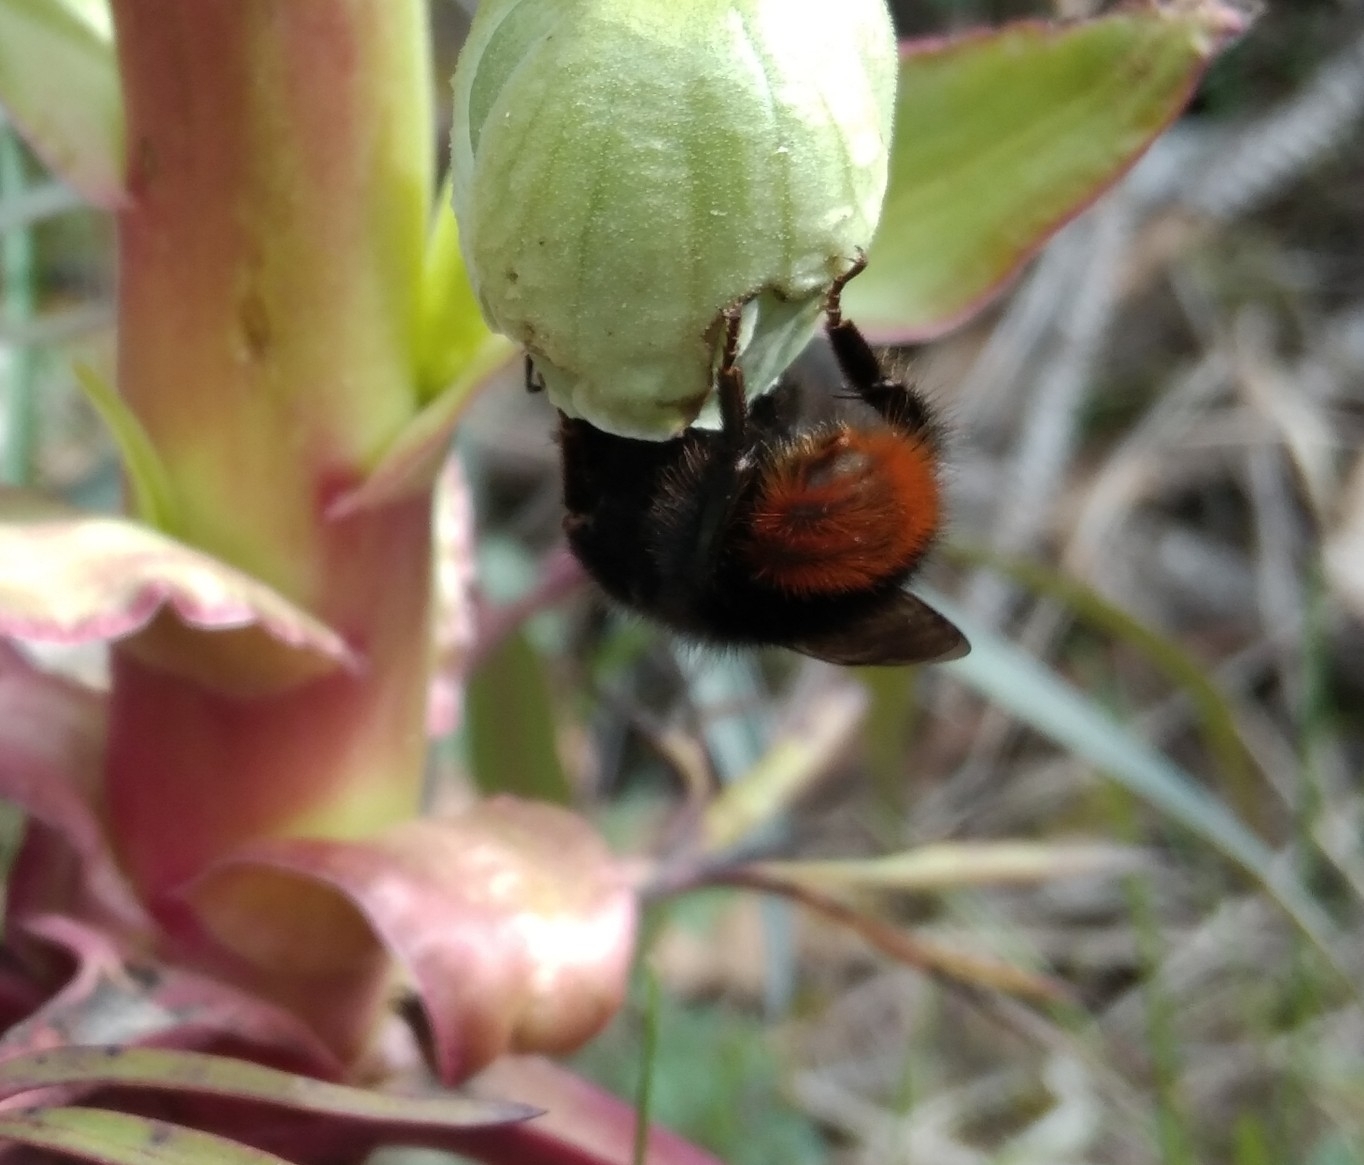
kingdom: Animalia
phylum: Arthropoda
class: Insecta
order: Hymenoptera
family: Apidae
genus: Bombus
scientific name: Bombus lapidarius
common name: Large red-tailed humble-bee
